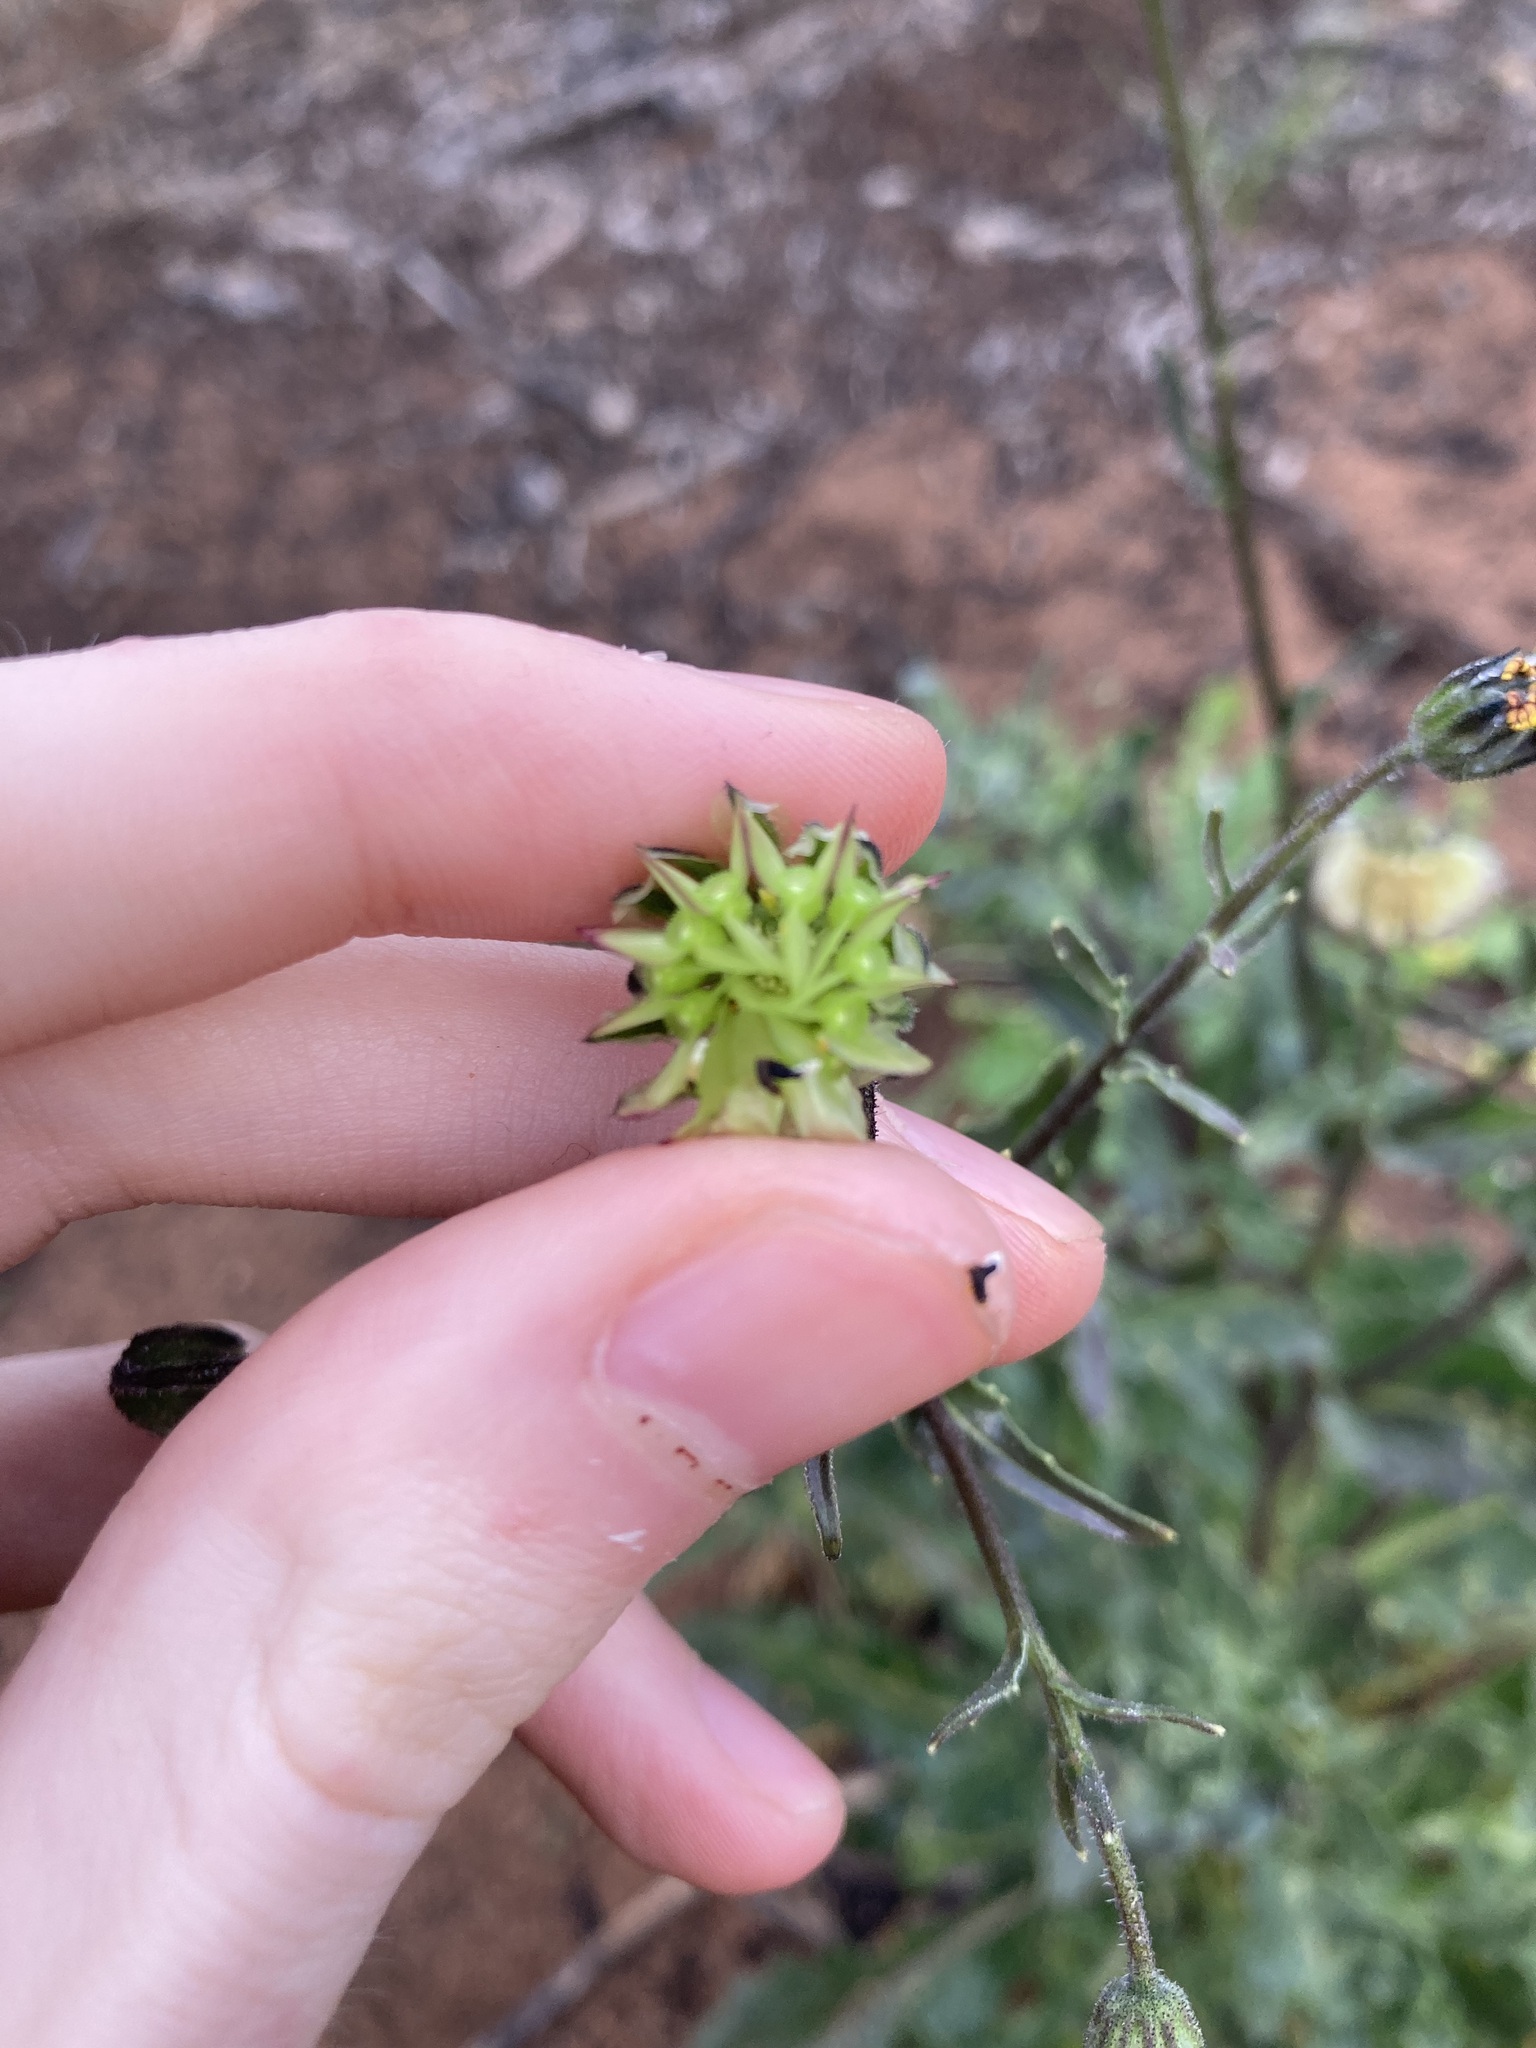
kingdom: Plantae
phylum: Tracheophyta
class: Magnoliopsida
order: Asterales
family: Asteraceae
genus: Osteospermum
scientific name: Osteospermum monstrosum
